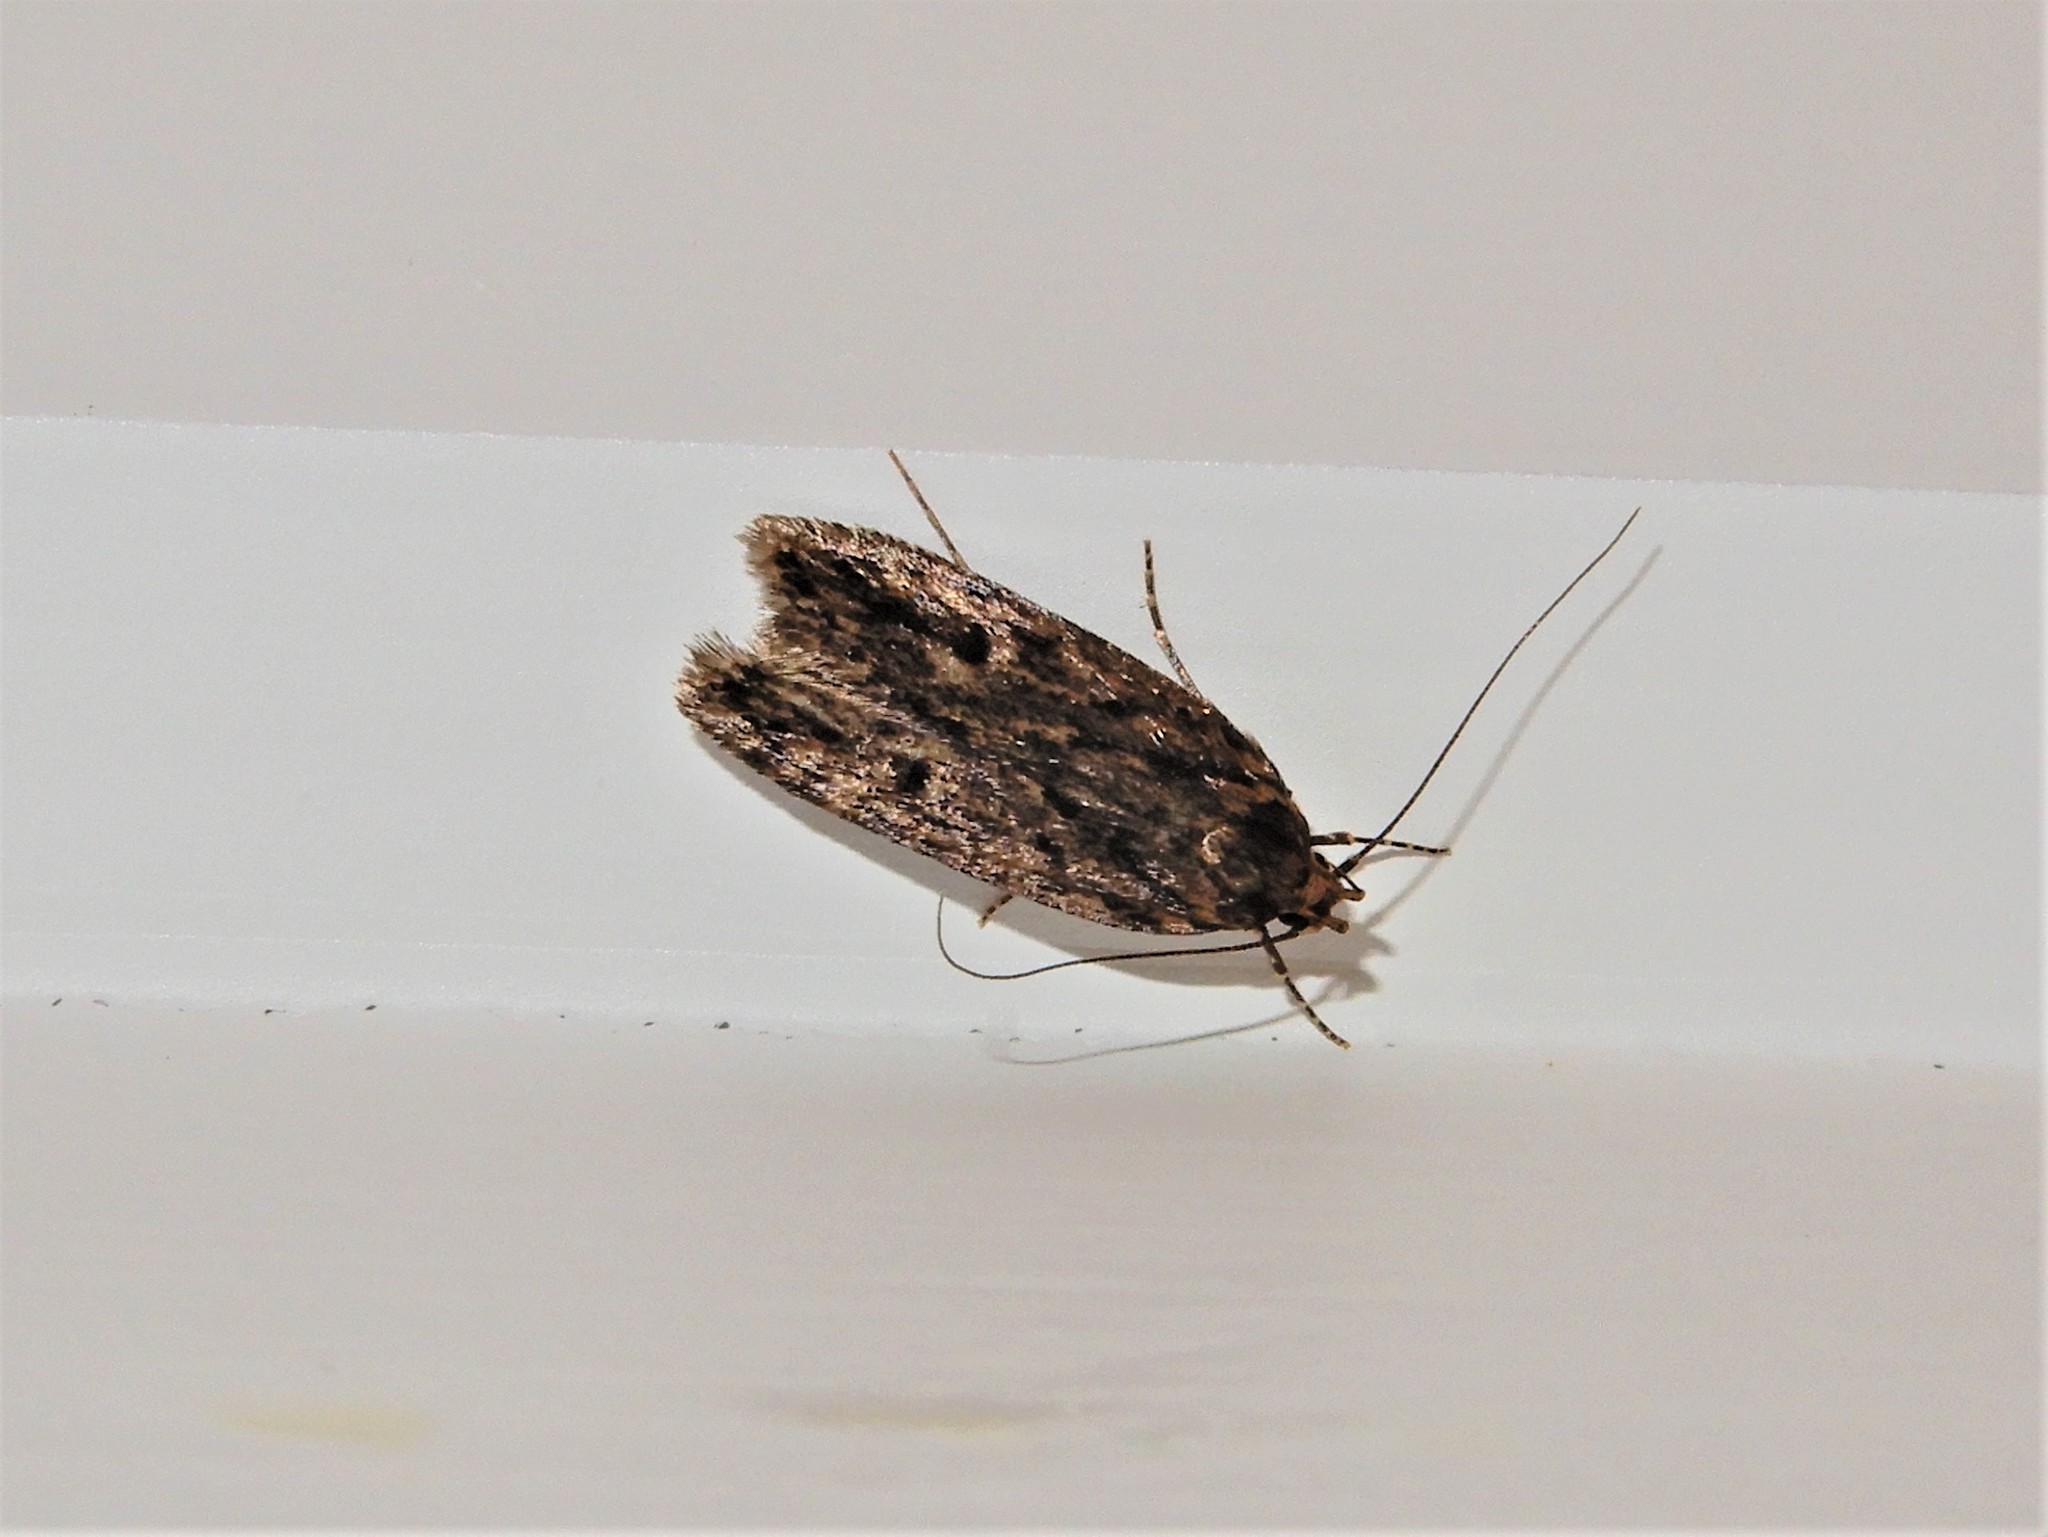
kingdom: Animalia
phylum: Arthropoda
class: Insecta
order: Lepidoptera
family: Oecophoridae
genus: Hofmannophila
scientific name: Hofmannophila pseudospretella
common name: Brown house moth
